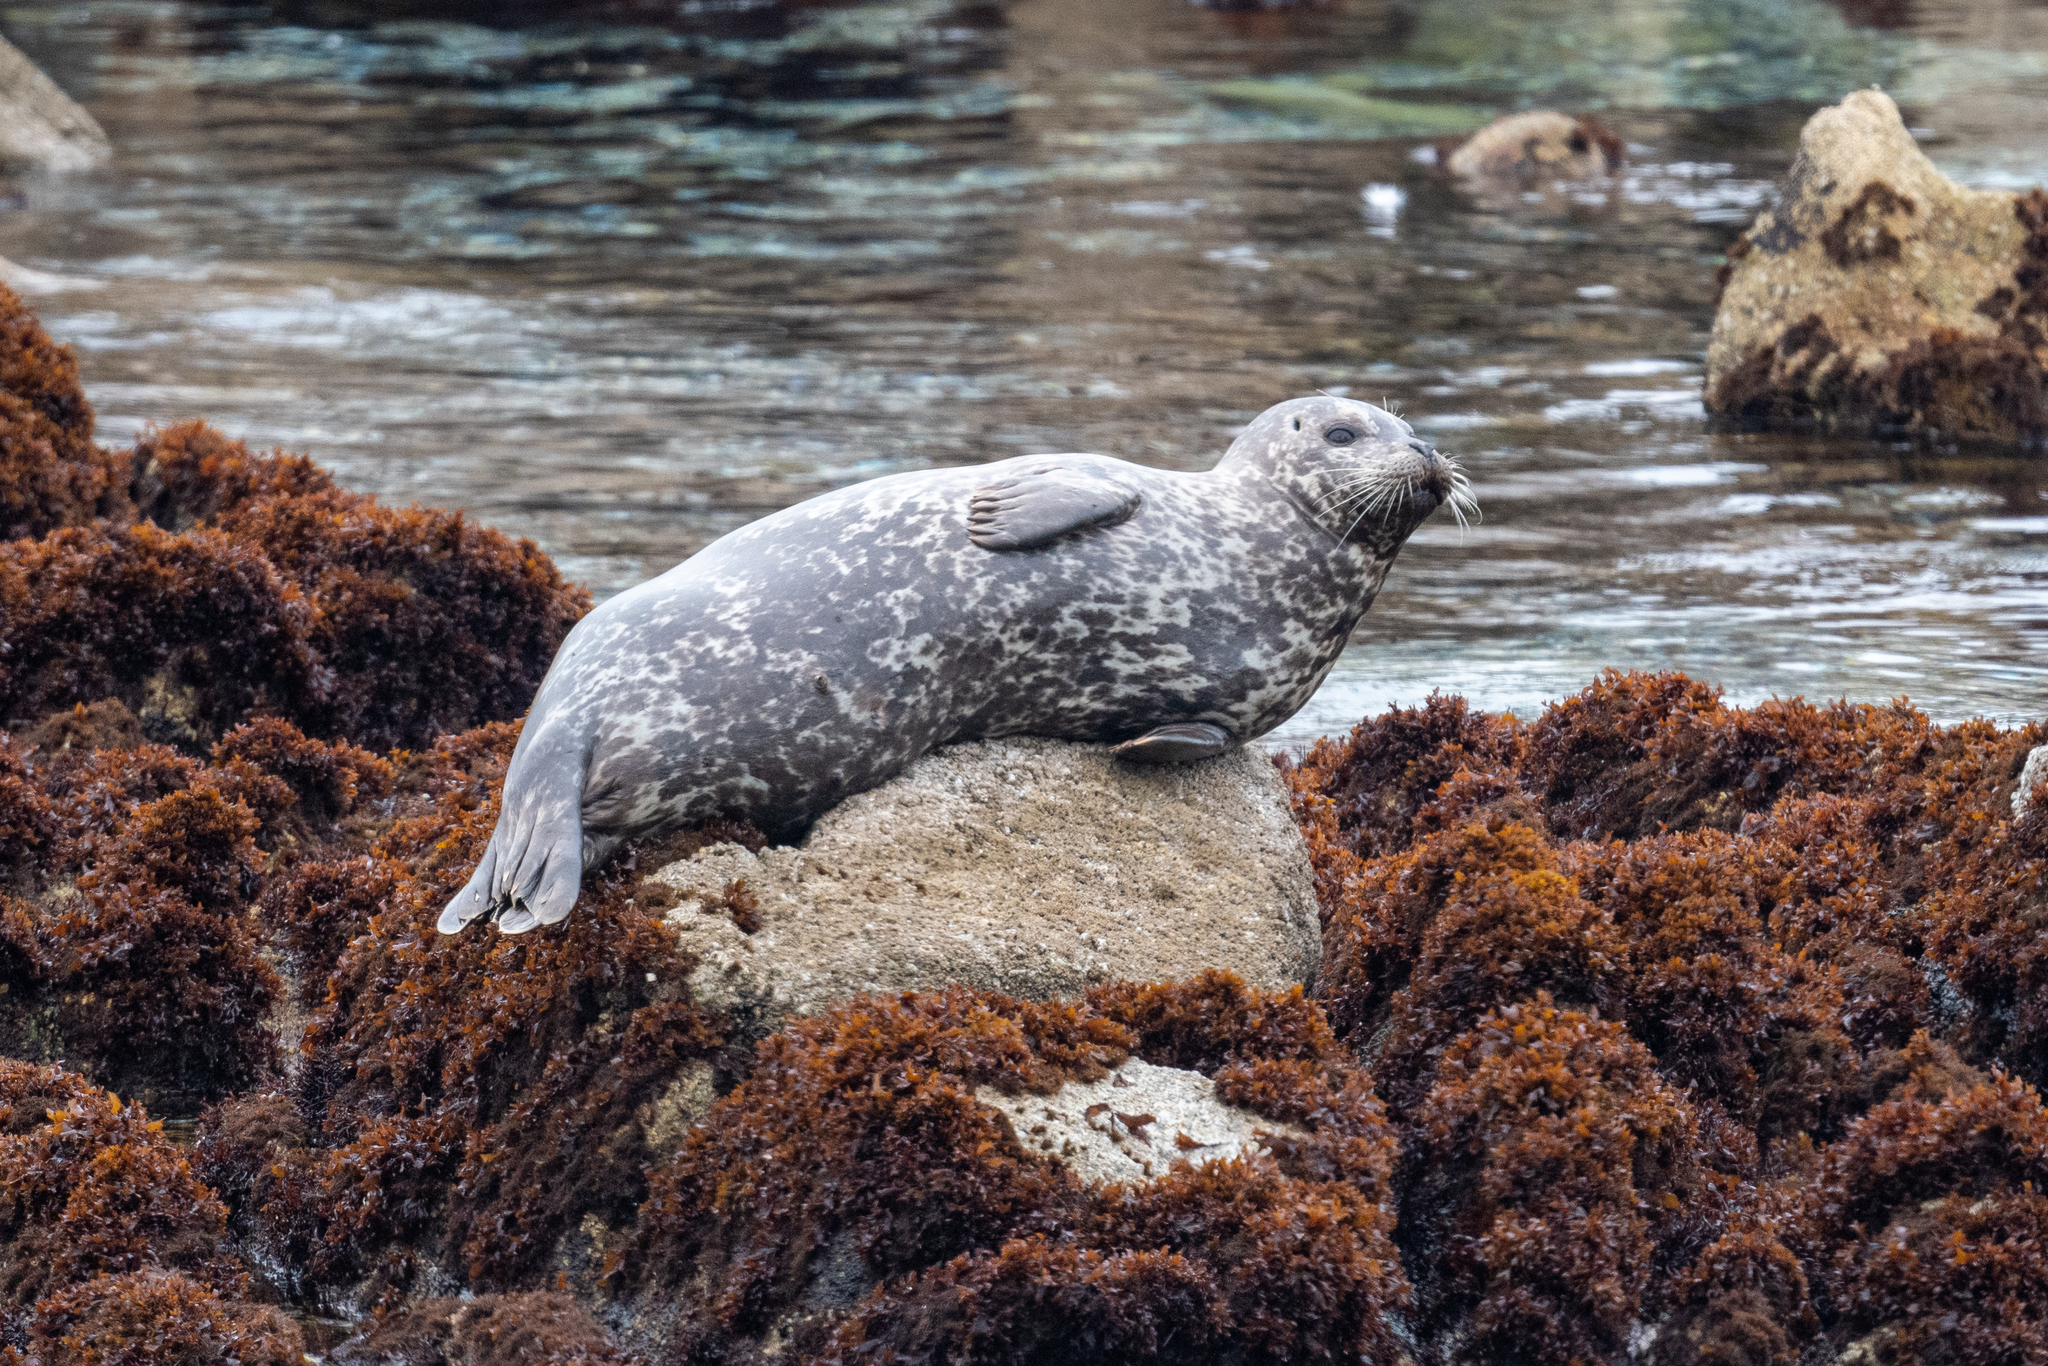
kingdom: Animalia
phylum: Chordata
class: Mammalia
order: Carnivora
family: Phocidae
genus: Phoca
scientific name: Phoca vitulina
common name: Harbor seal
